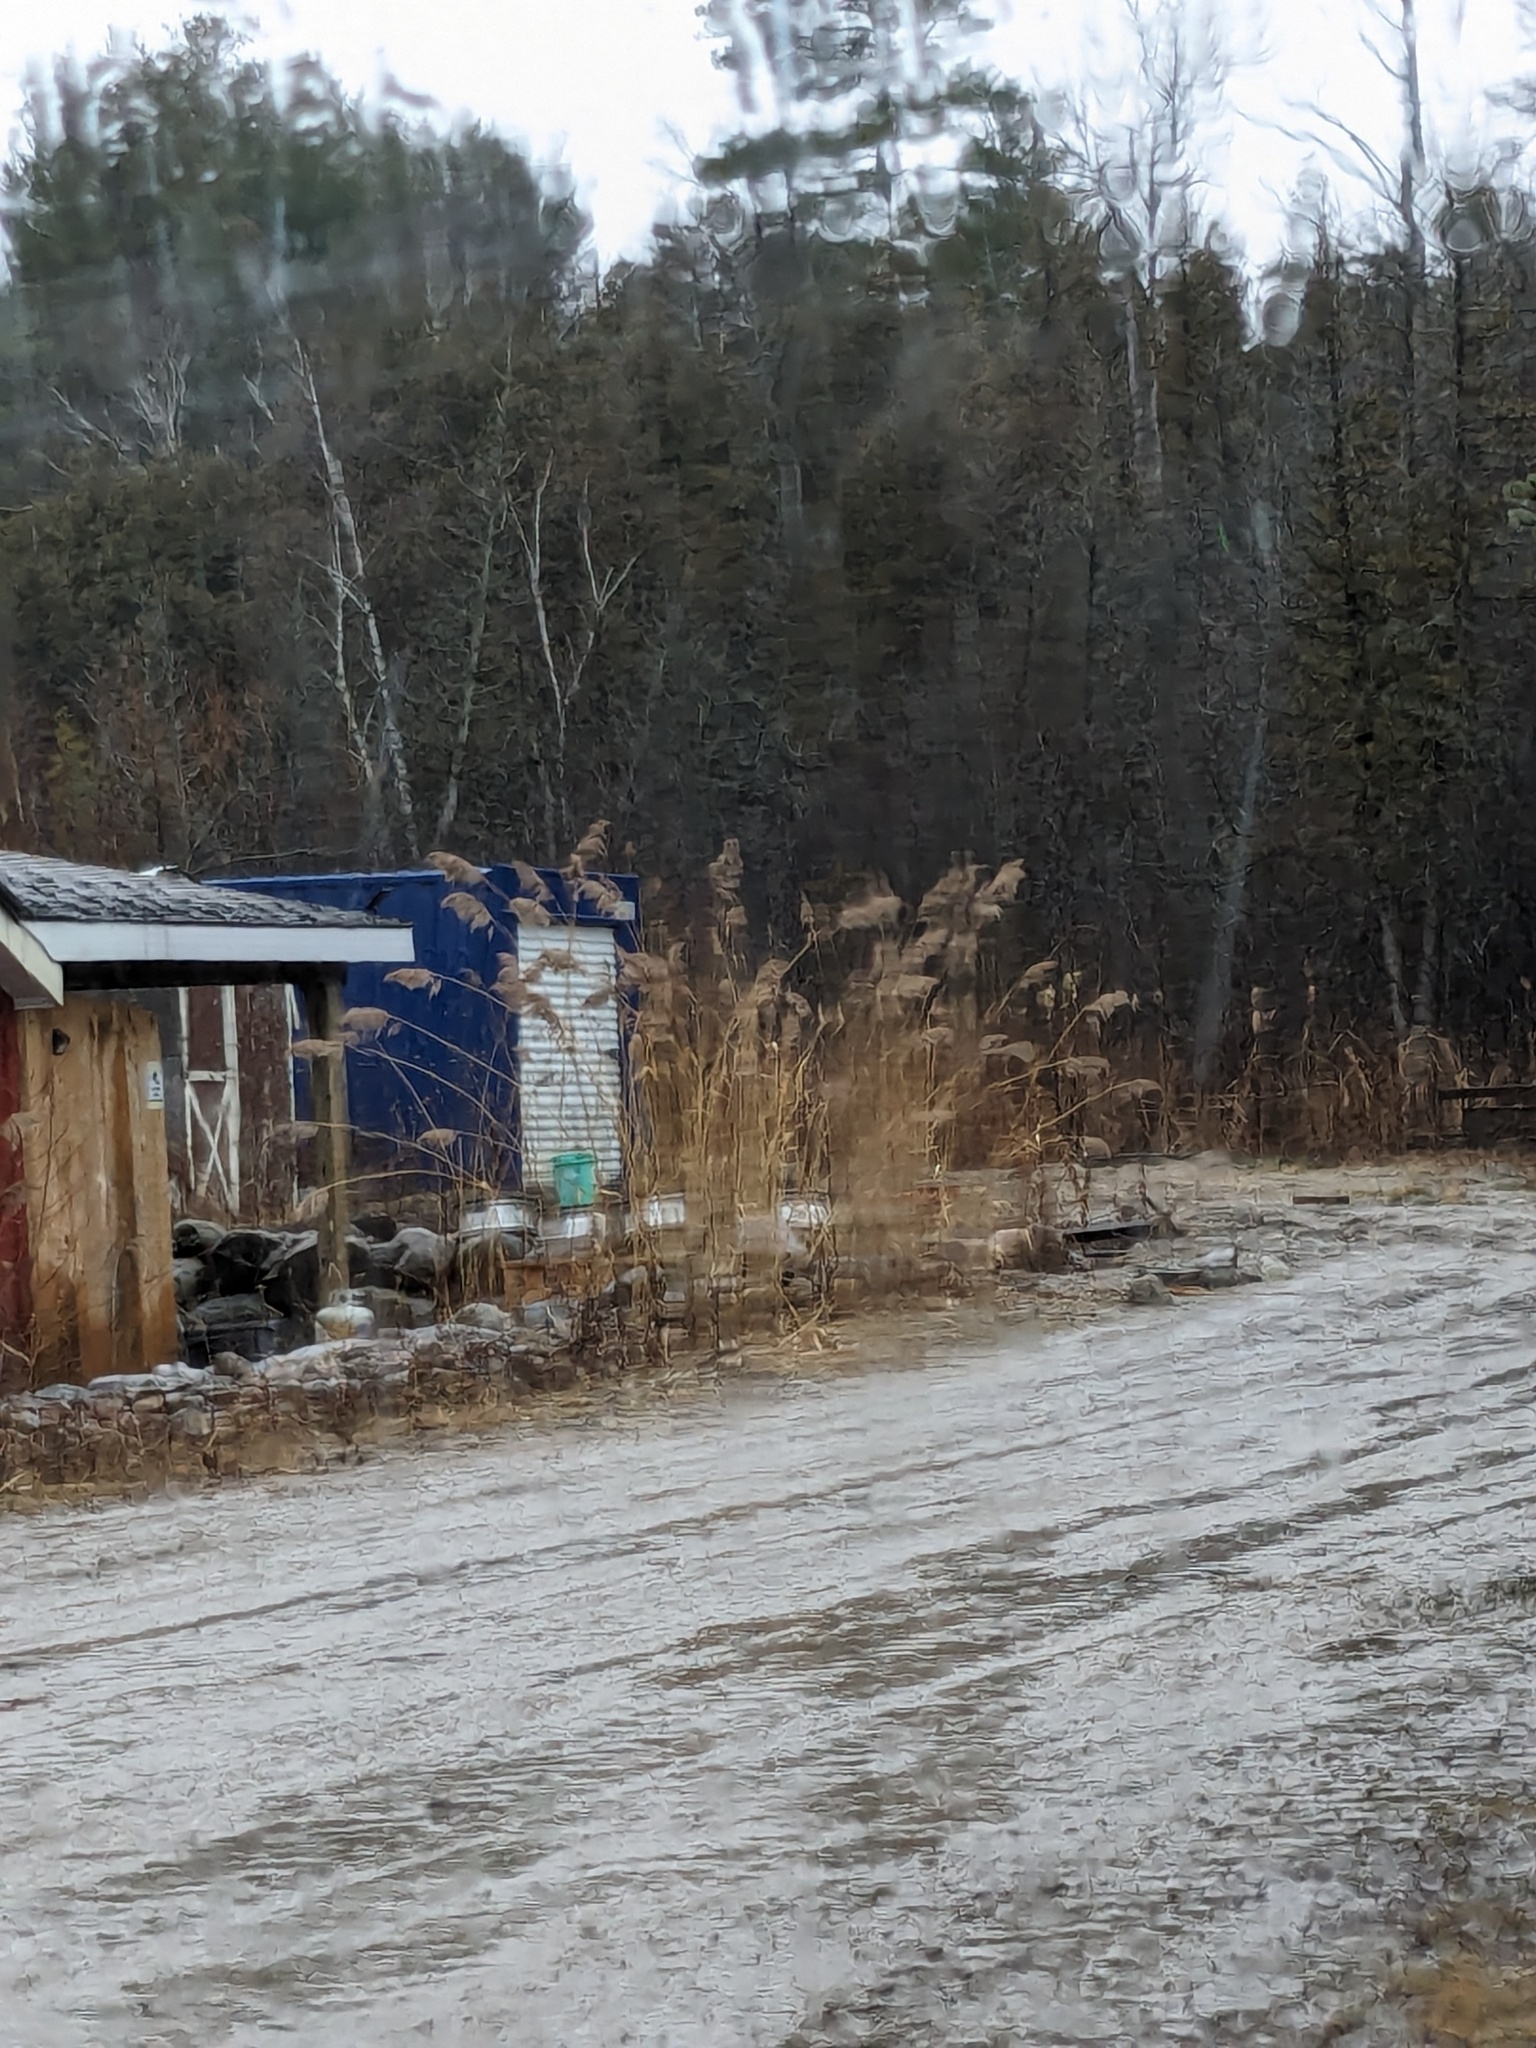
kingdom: Plantae
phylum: Tracheophyta
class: Liliopsida
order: Poales
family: Poaceae
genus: Phragmites
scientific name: Phragmites australis
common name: Common reed
